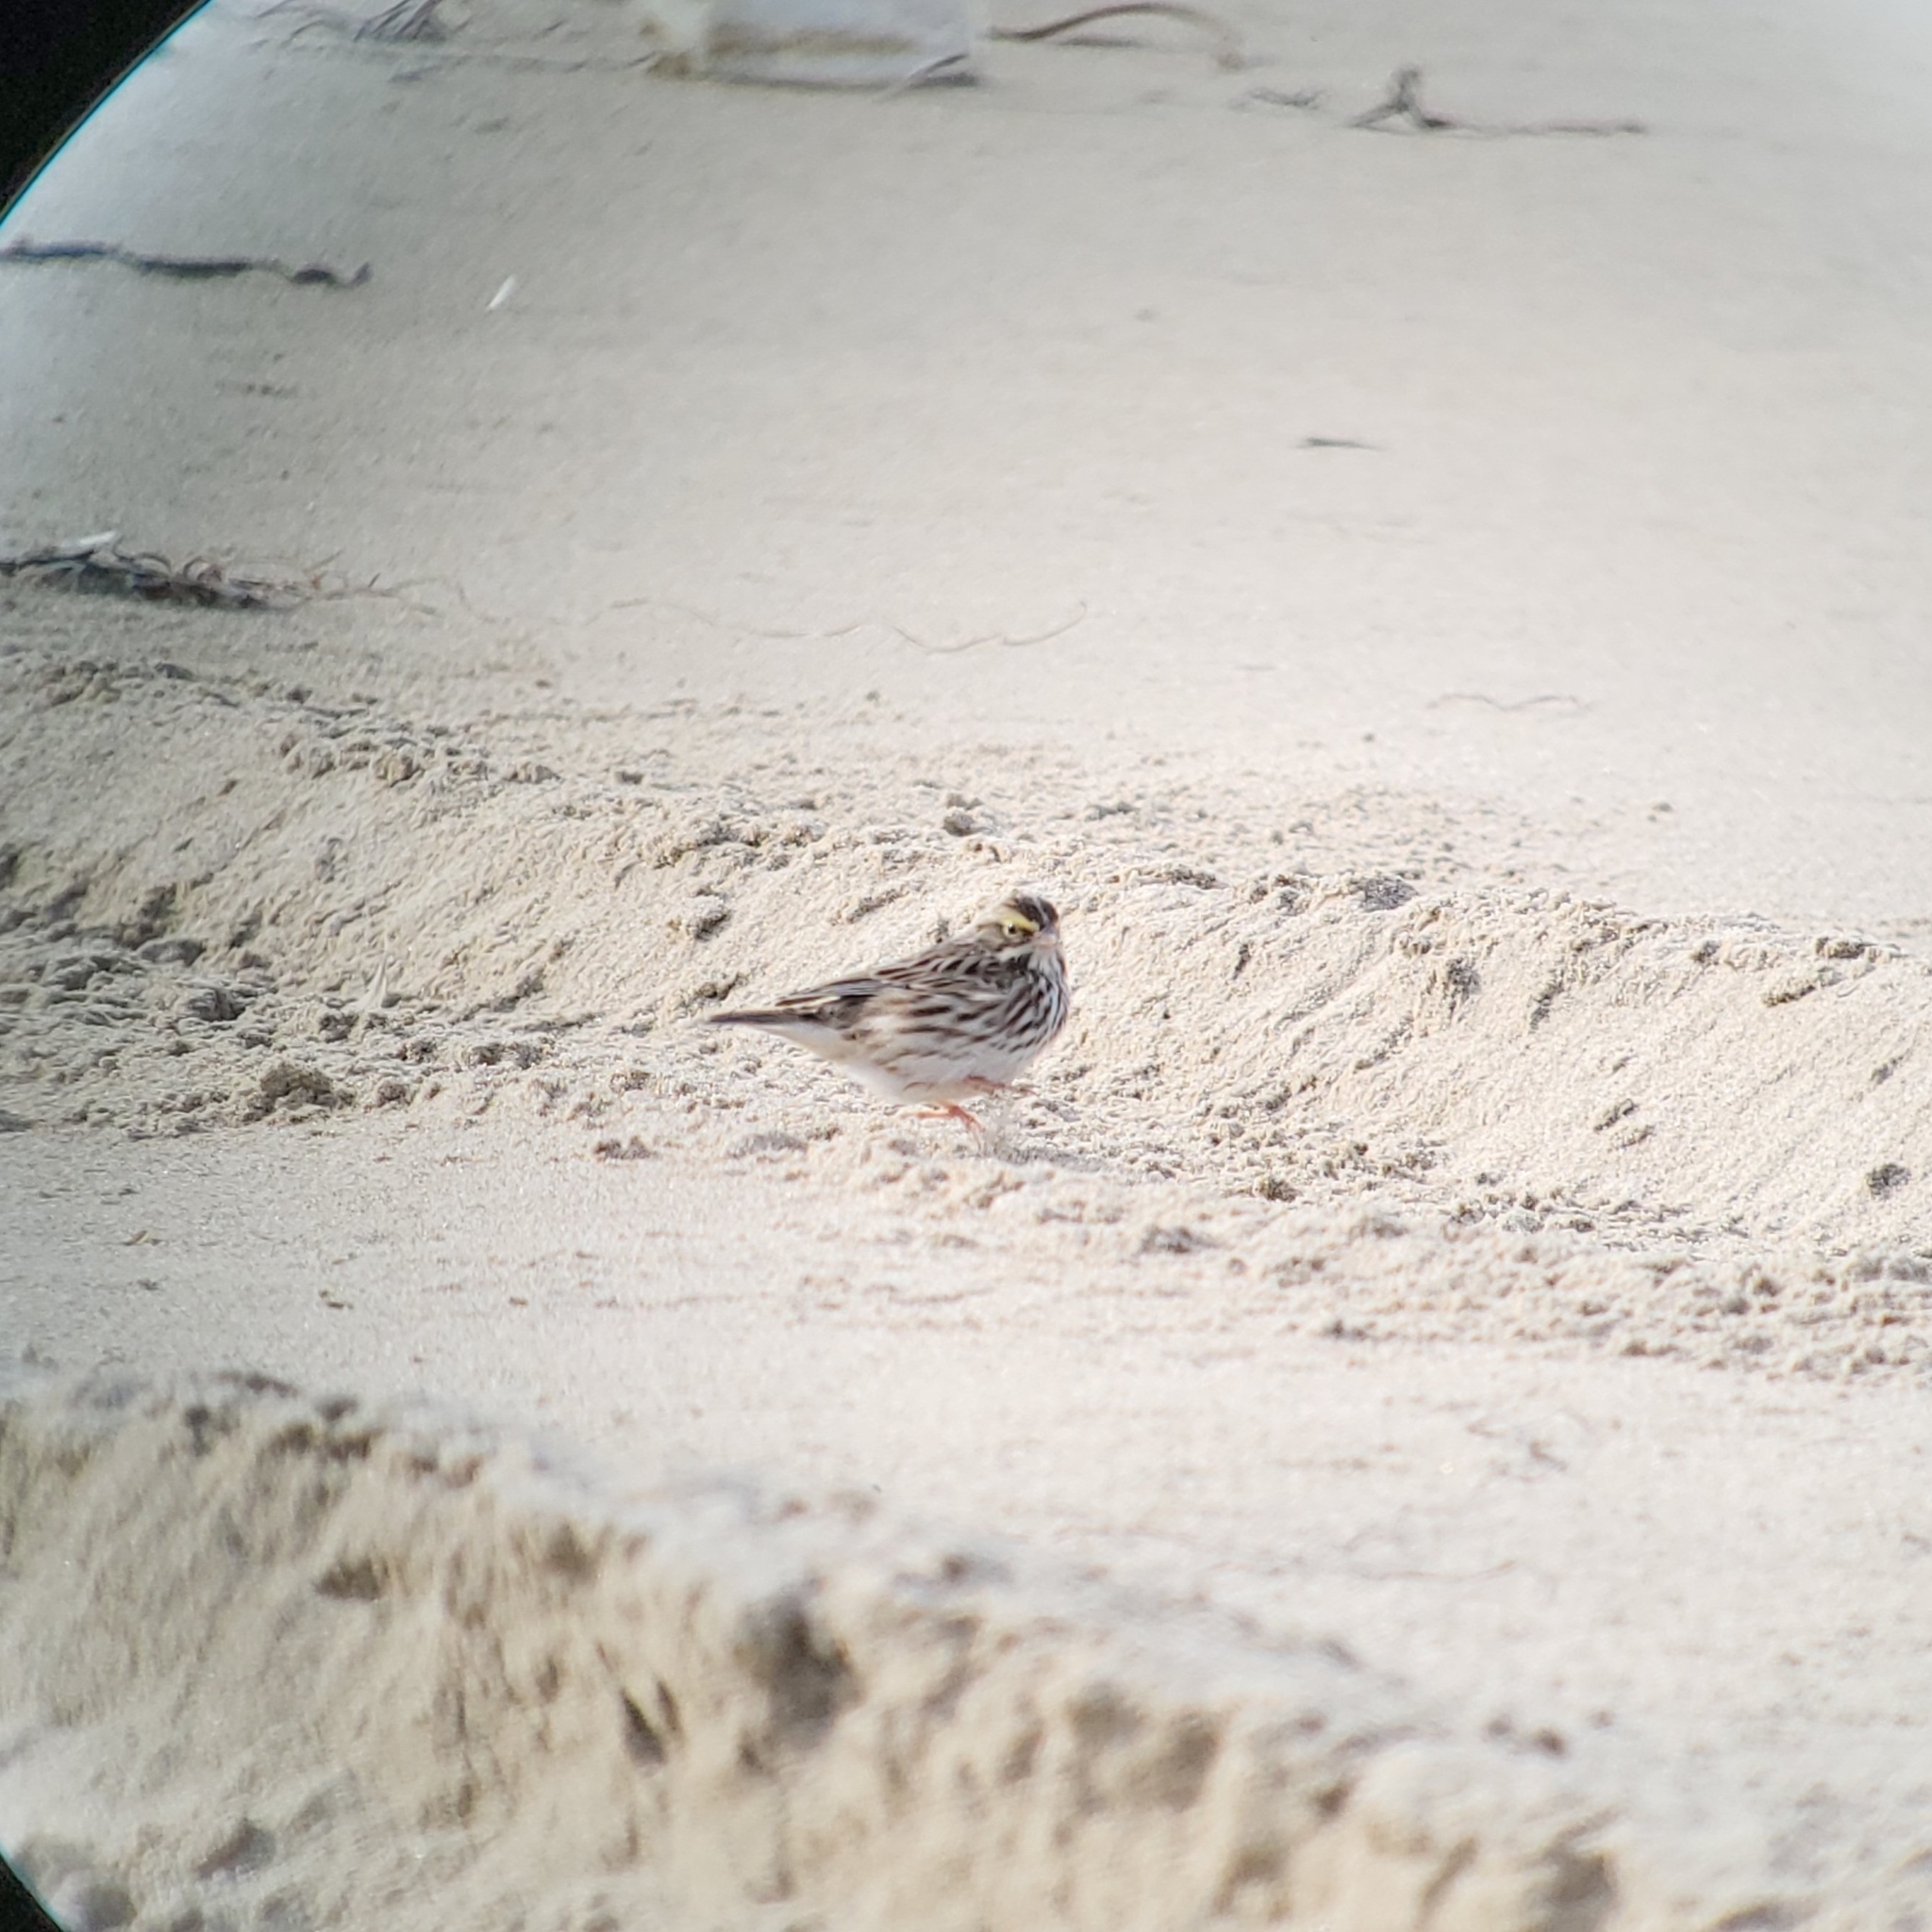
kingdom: Animalia
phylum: Chordata
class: Aves
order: Passeriformes
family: Passerellidae
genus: Passerculus
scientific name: Passerculus sandwichensis
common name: Savannah sparrow
